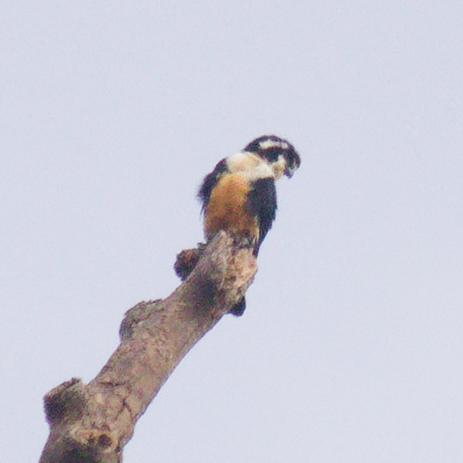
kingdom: Animalia
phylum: Chordata
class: Aves
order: Falconiformes
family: Falconidae
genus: Microhierax
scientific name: Microhierax fringillarius
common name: Black-thighed falconet
